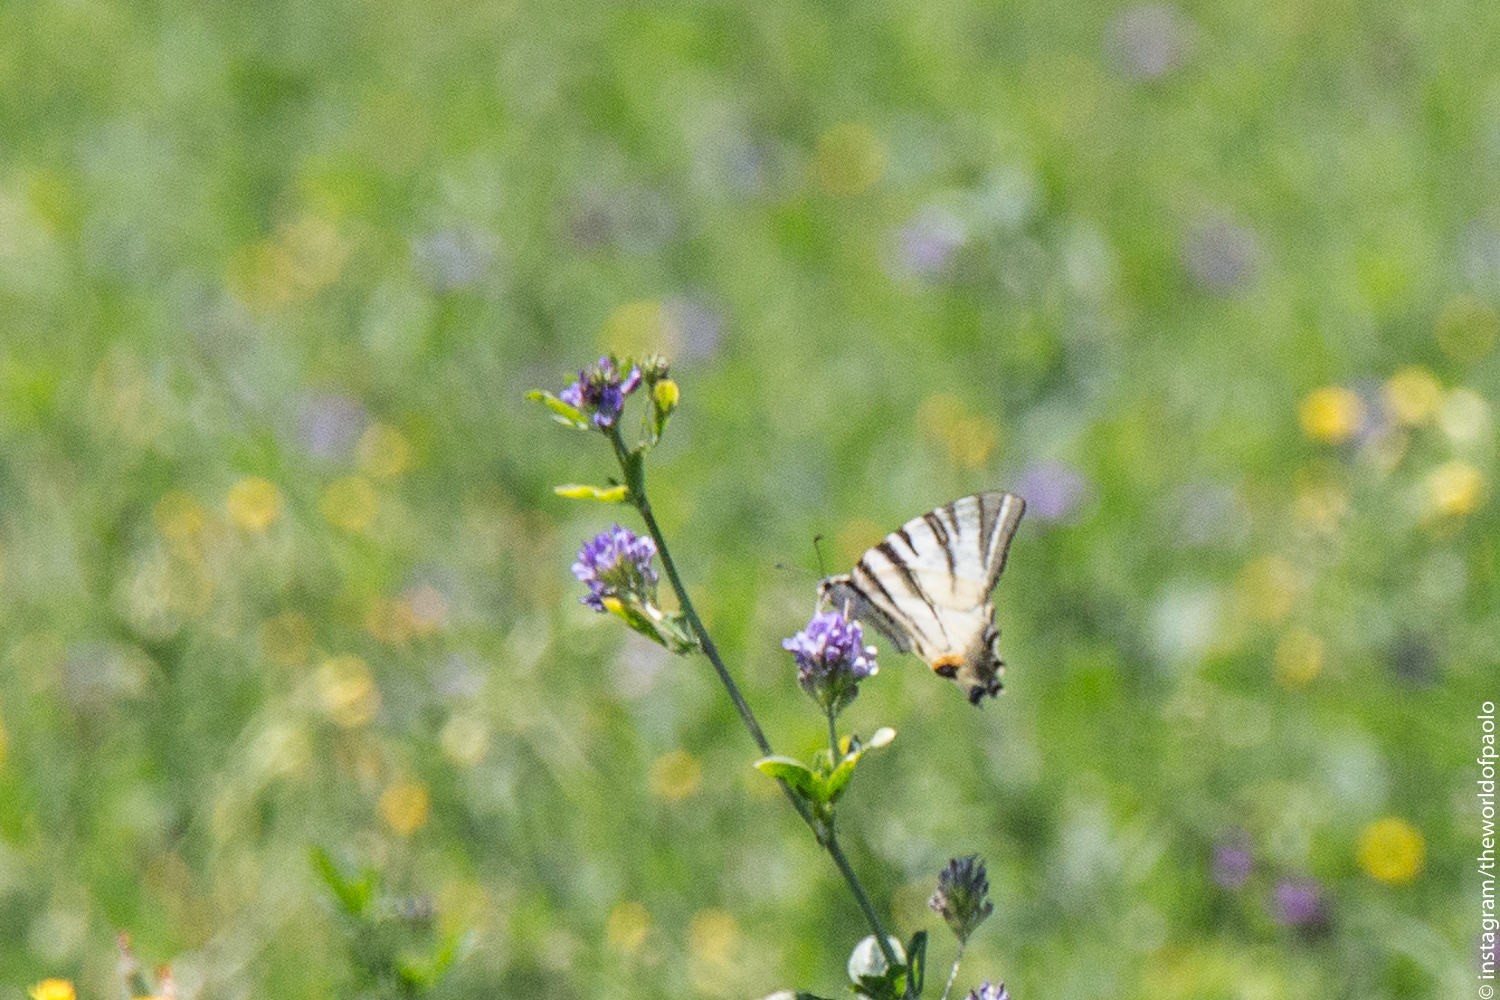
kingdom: Animalia
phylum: Arthropoda
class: Insecta
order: Lepidoptera
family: Papilionidae
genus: Iphiclides
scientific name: Iphiclides podalirius
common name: Scarce swallowtail
